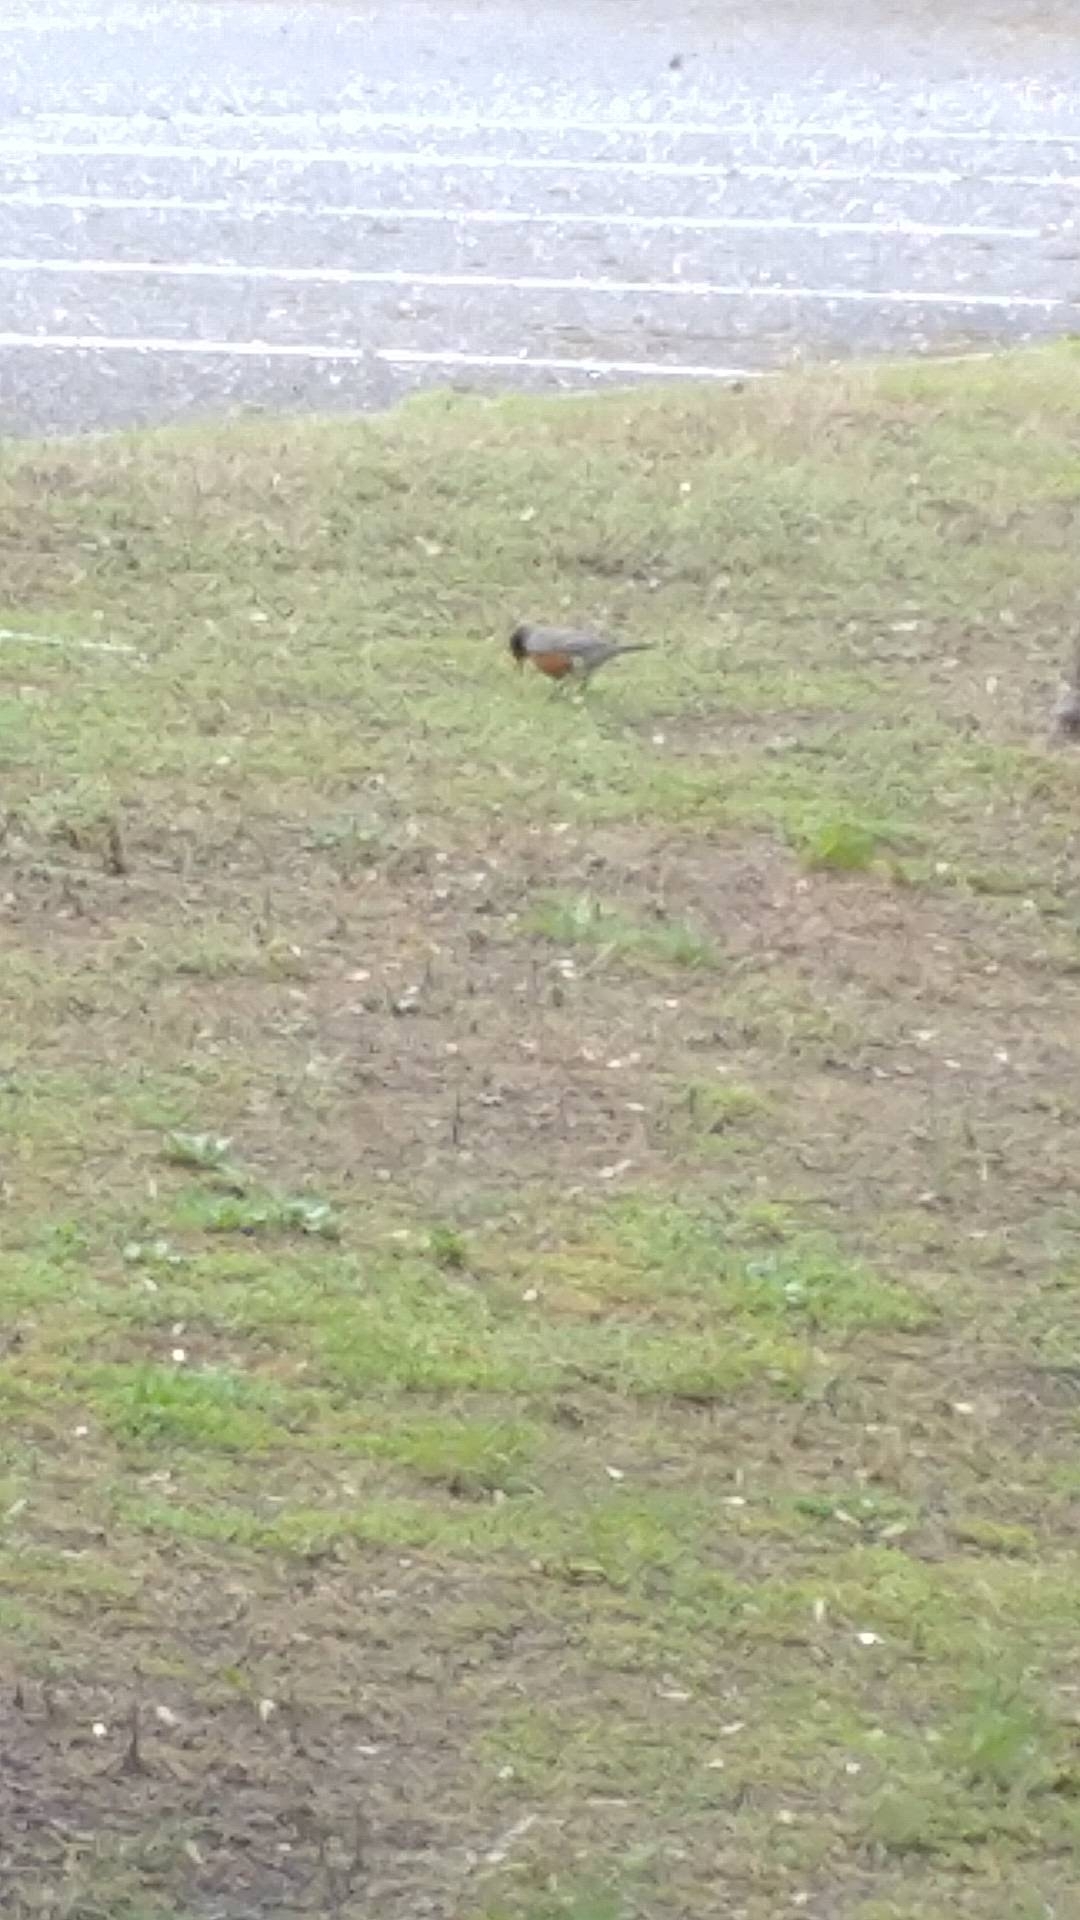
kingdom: Animalia
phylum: Chordata
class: Aves
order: Passeriformes
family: Turdidae
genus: Turdus
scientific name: Turdus migratorius
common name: American robin
